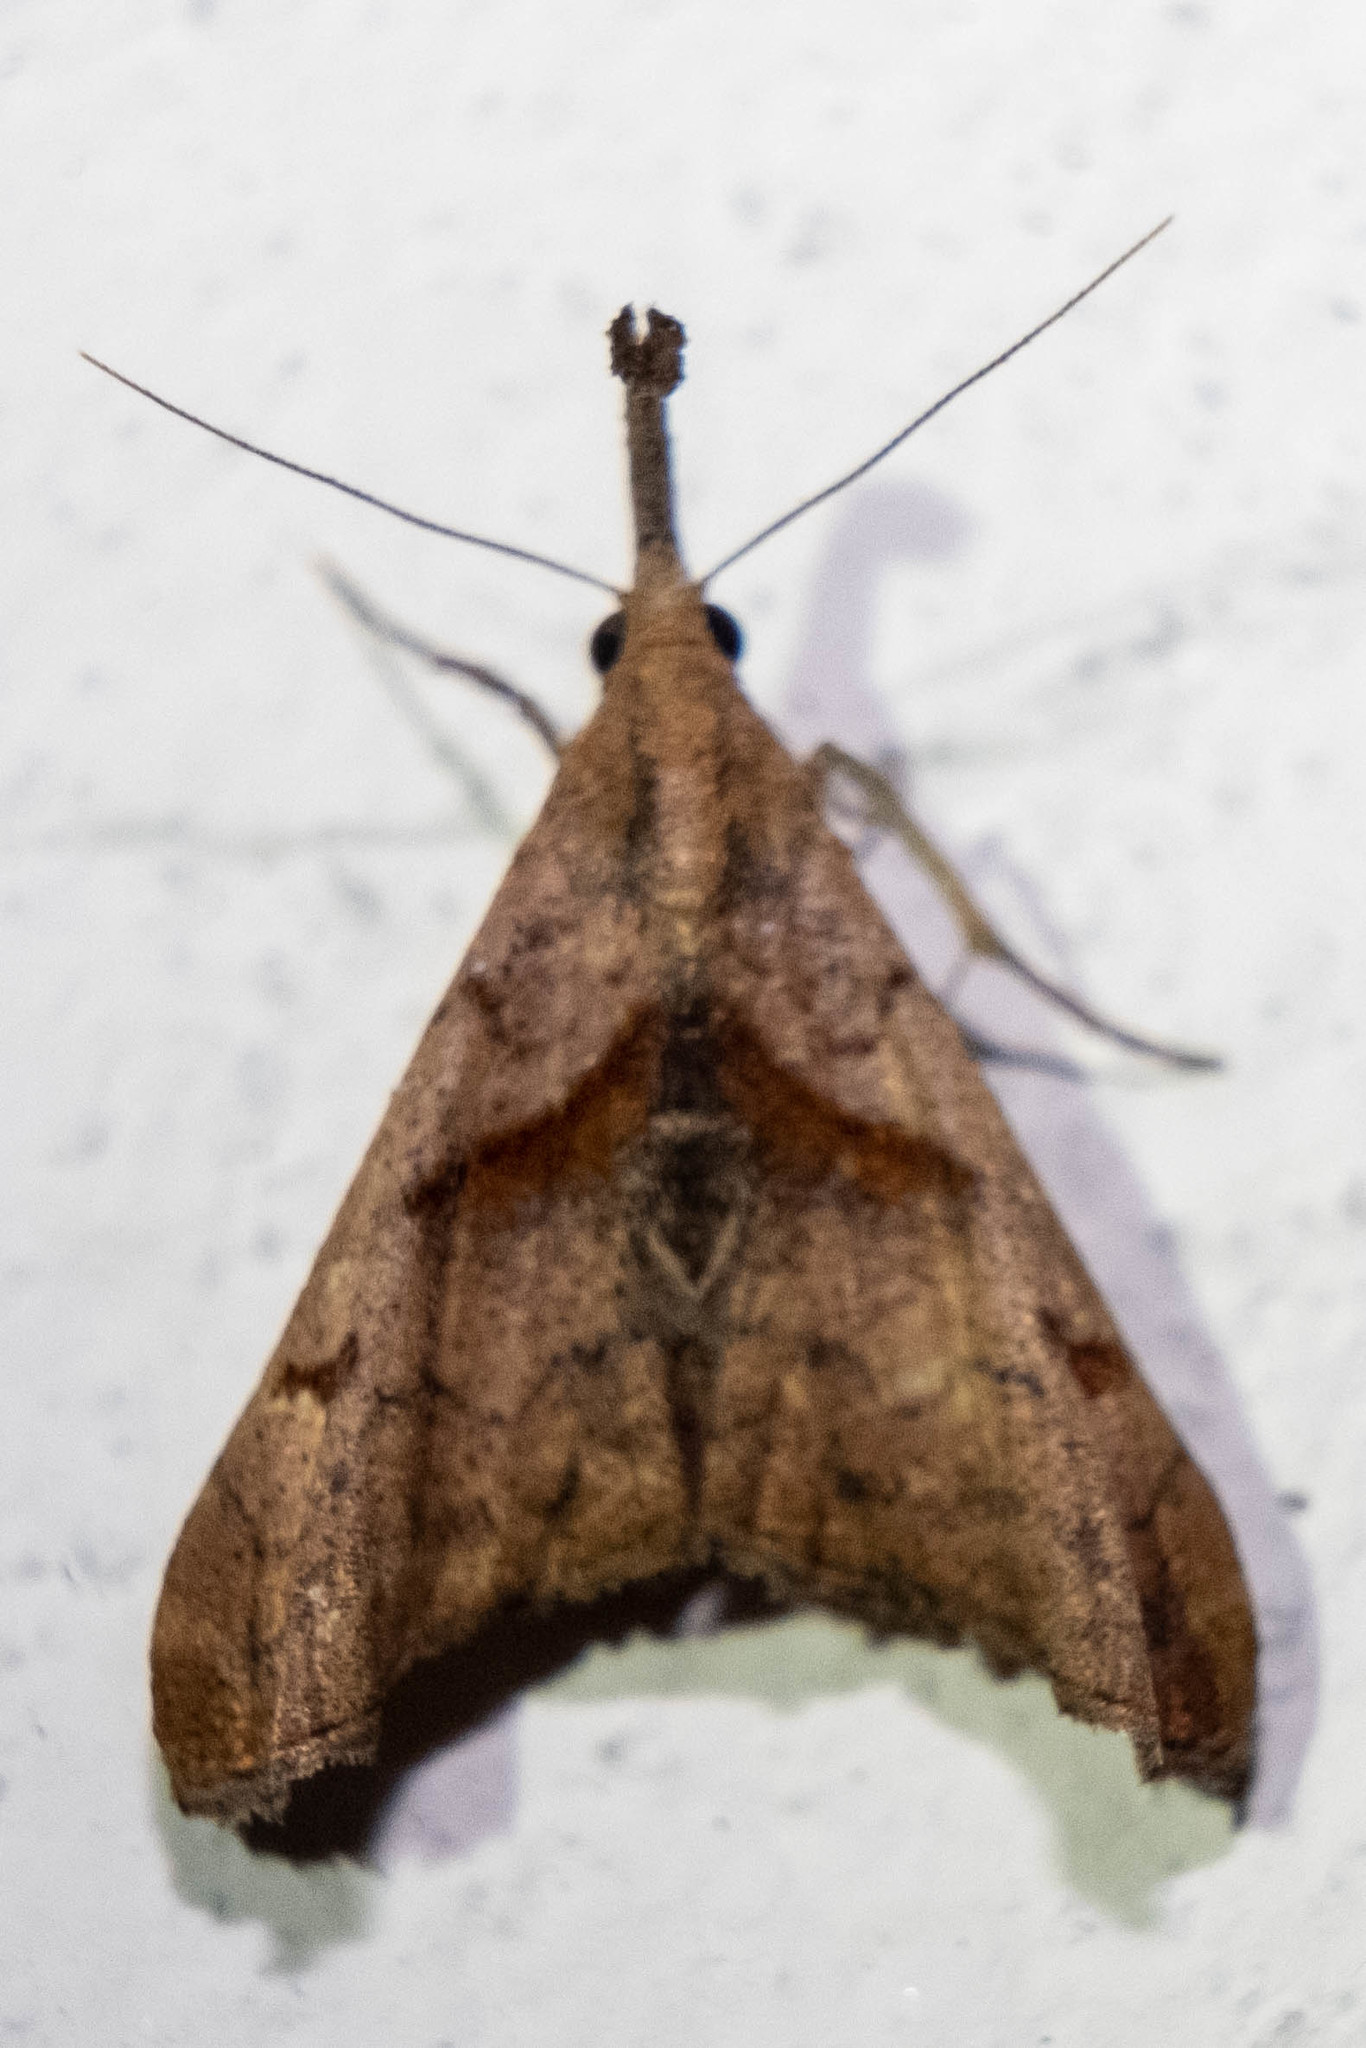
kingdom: Animalia
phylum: Arthropoda
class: Insecta
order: Lepidoptera
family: Erebidae
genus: Palthis
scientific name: Palthis angulalis
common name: Dark-spotted palthis moth
